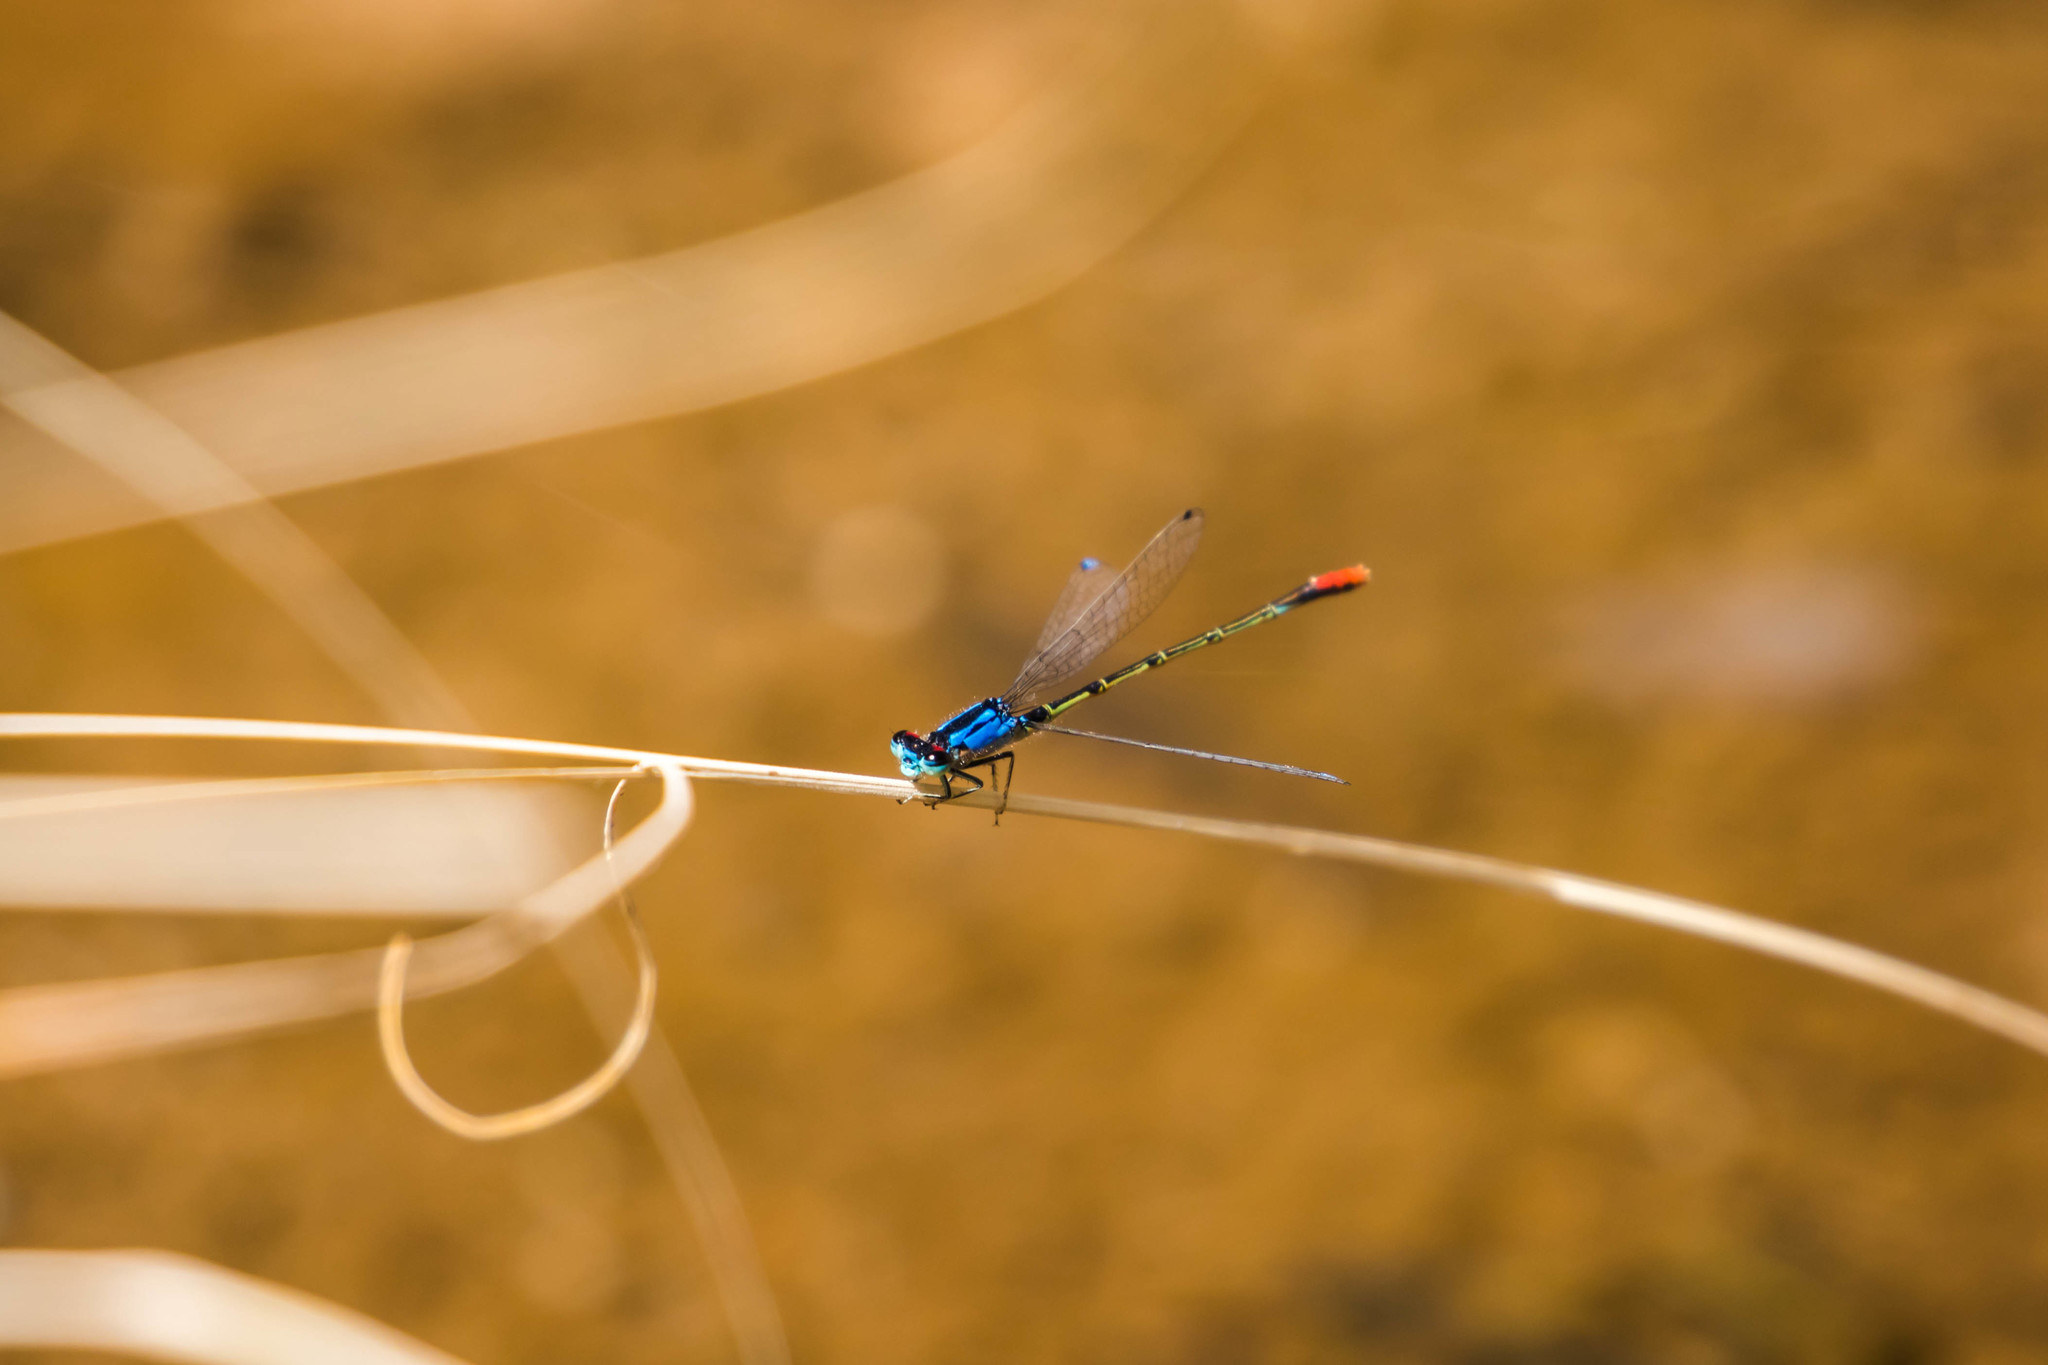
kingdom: Animalia
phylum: Arthropoda
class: Insecta
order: Odonata
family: Coenagrionidae
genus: Hesperagrion
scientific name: Hesperagrion heterodoxum
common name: Painted damsel
